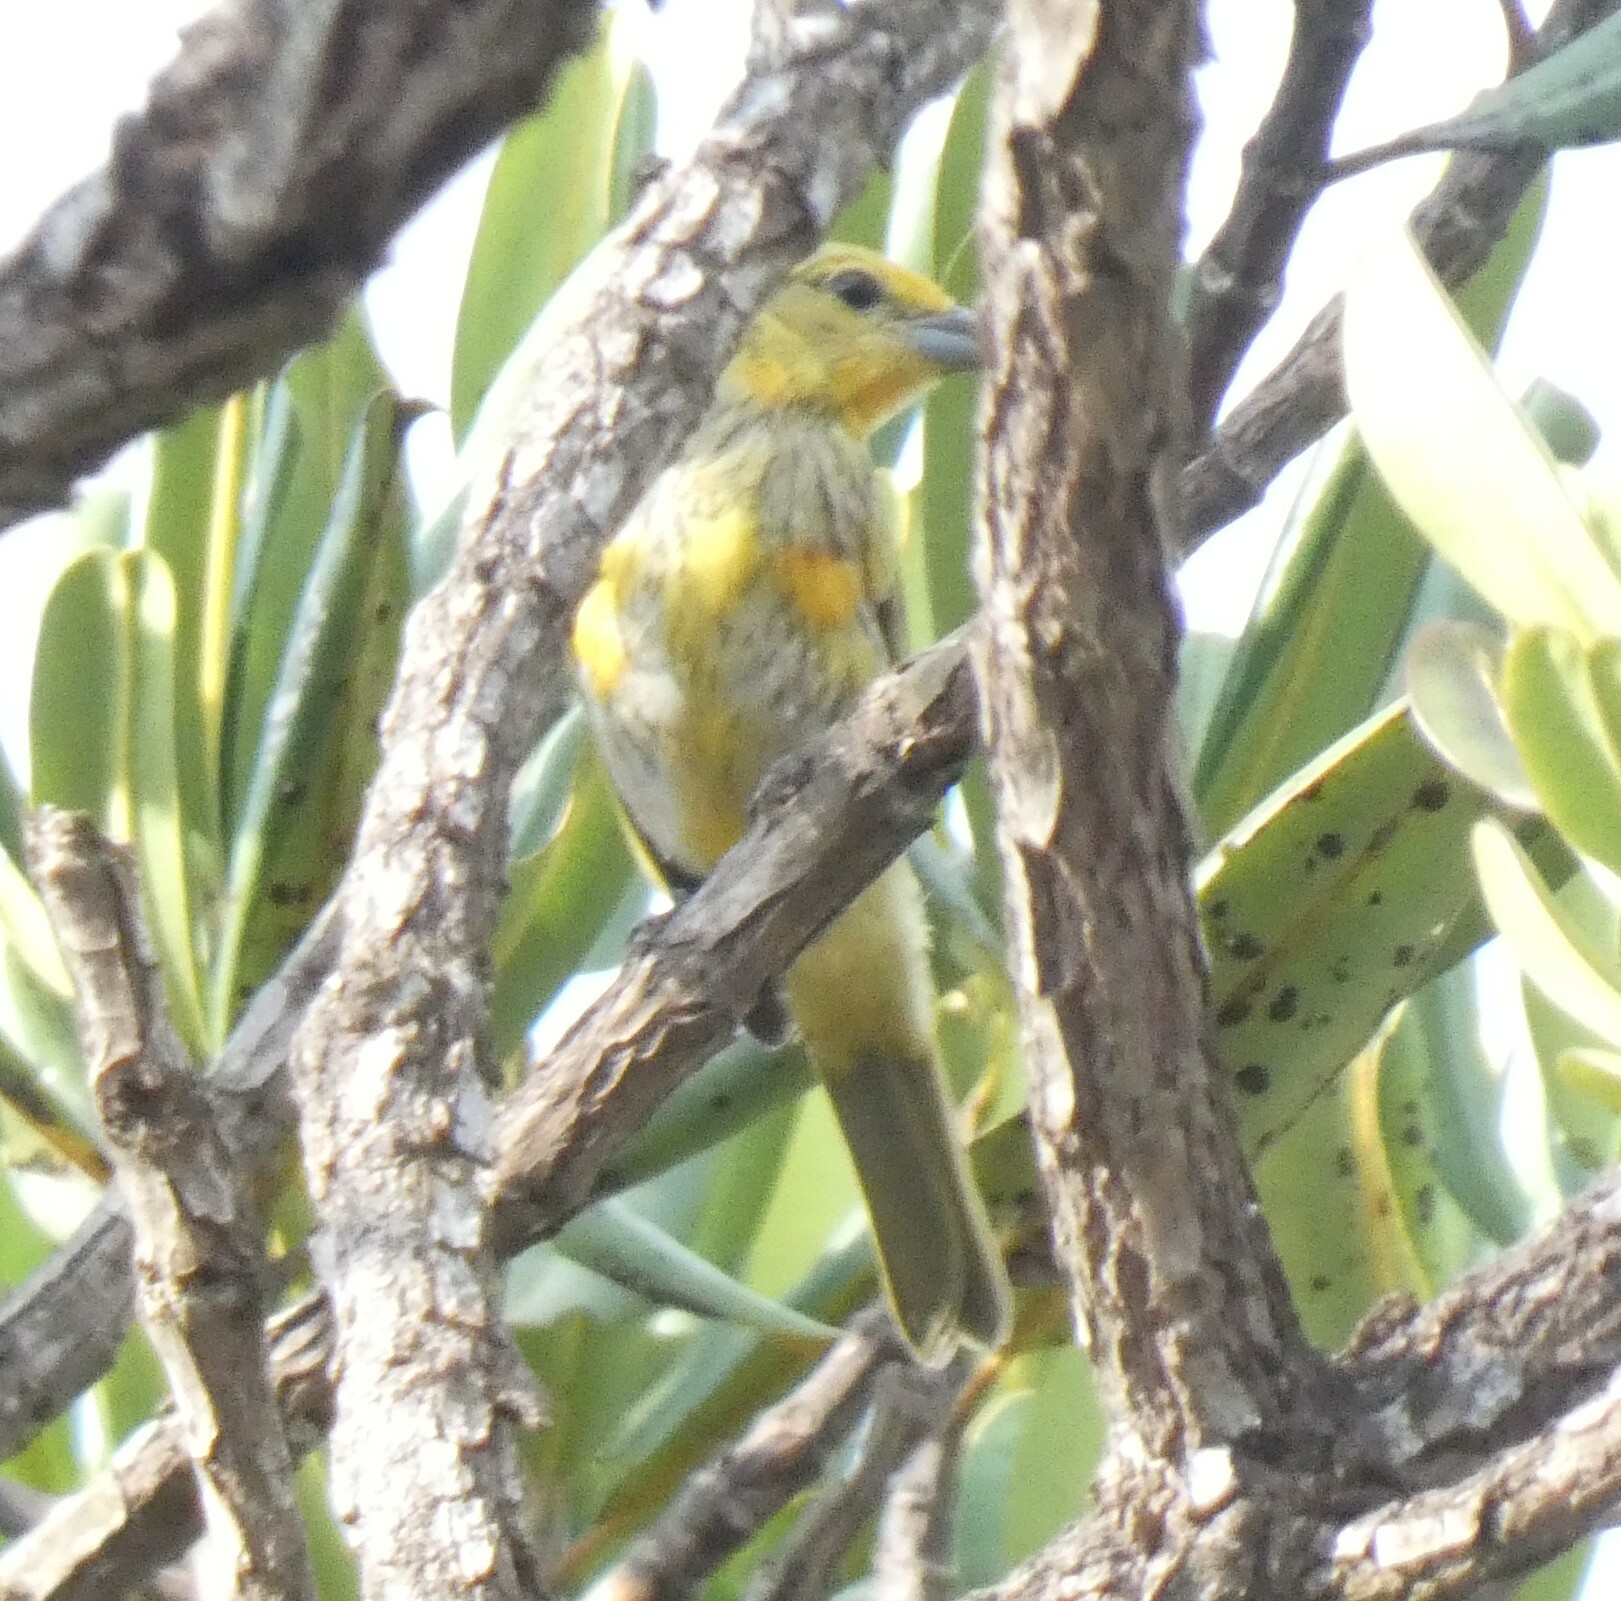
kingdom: Animalia
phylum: Chordata
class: Aves
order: Passeriformes
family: Cardinalidae
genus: Piranga
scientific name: Piranga flava
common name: Red tanager
